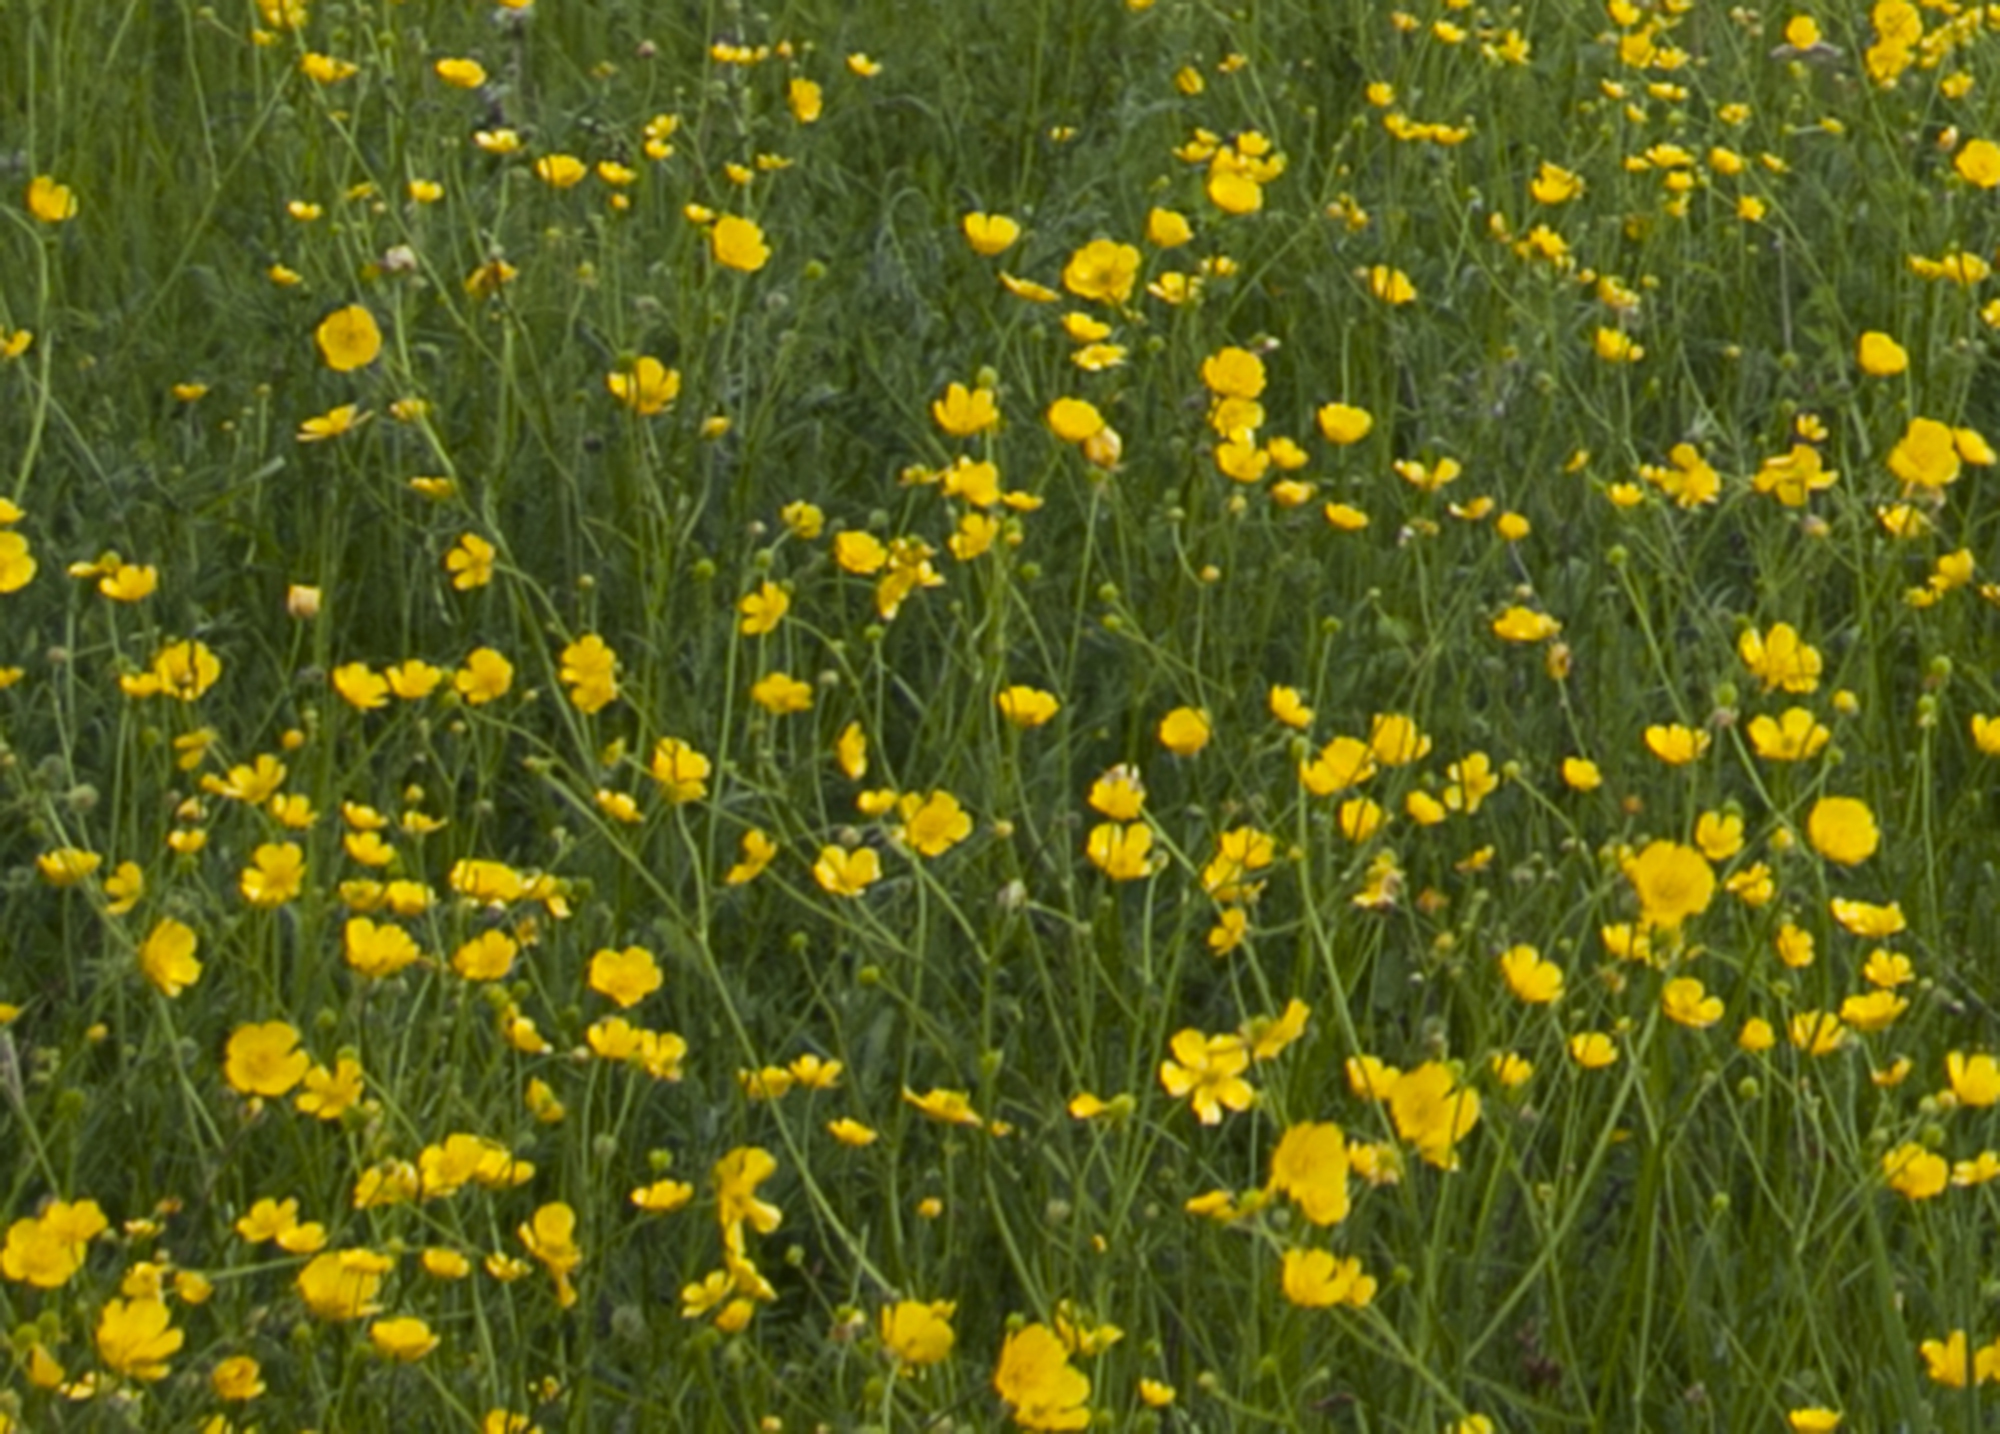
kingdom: Plantae
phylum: Tracheophyta
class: Magnoliopsida
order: Ranunculales
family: Ranunculaceae
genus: Ranunculus
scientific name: Ranunculus acris
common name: Meadow buttercup
